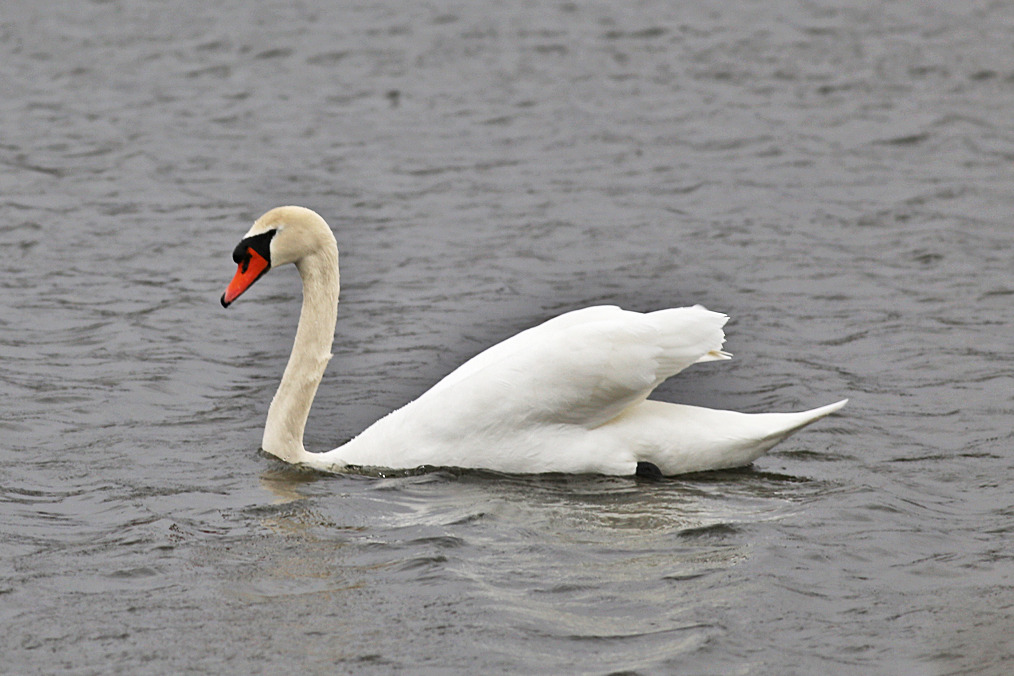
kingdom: Animalia
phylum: Chordata
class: Aves
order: Anseriformes
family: Anatidae
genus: Cygnus
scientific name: Cygnus olor
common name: Mute swan
